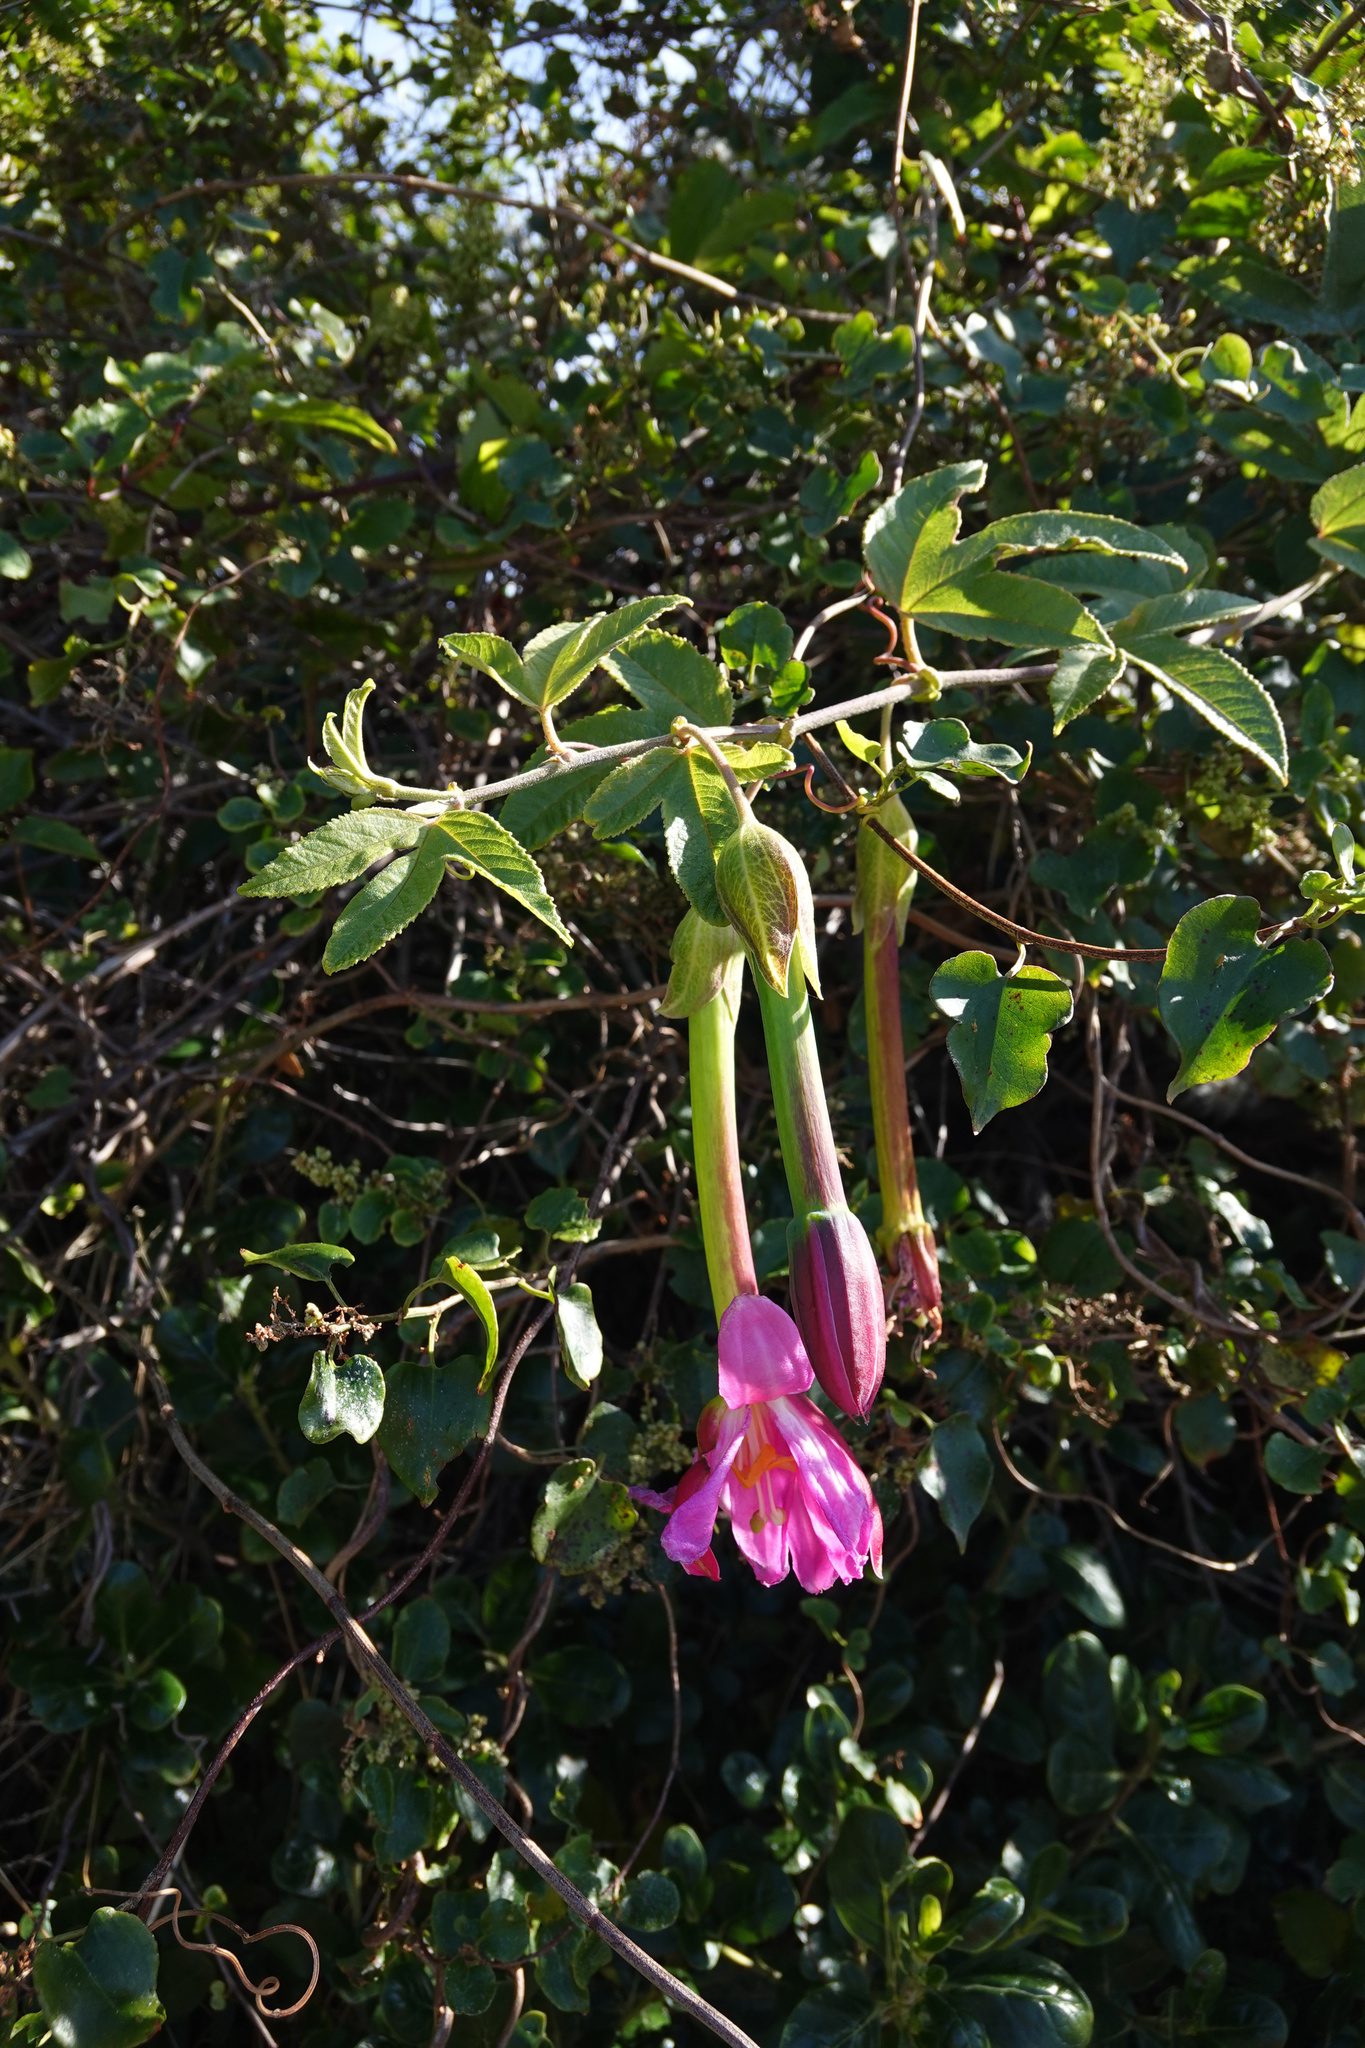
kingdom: Plantae
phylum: Tracheophyta
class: Magnoliopsida
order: Malpighiales
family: Passifloraceae
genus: Passiflora
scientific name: Passiflora tripartita
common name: Banana poka
